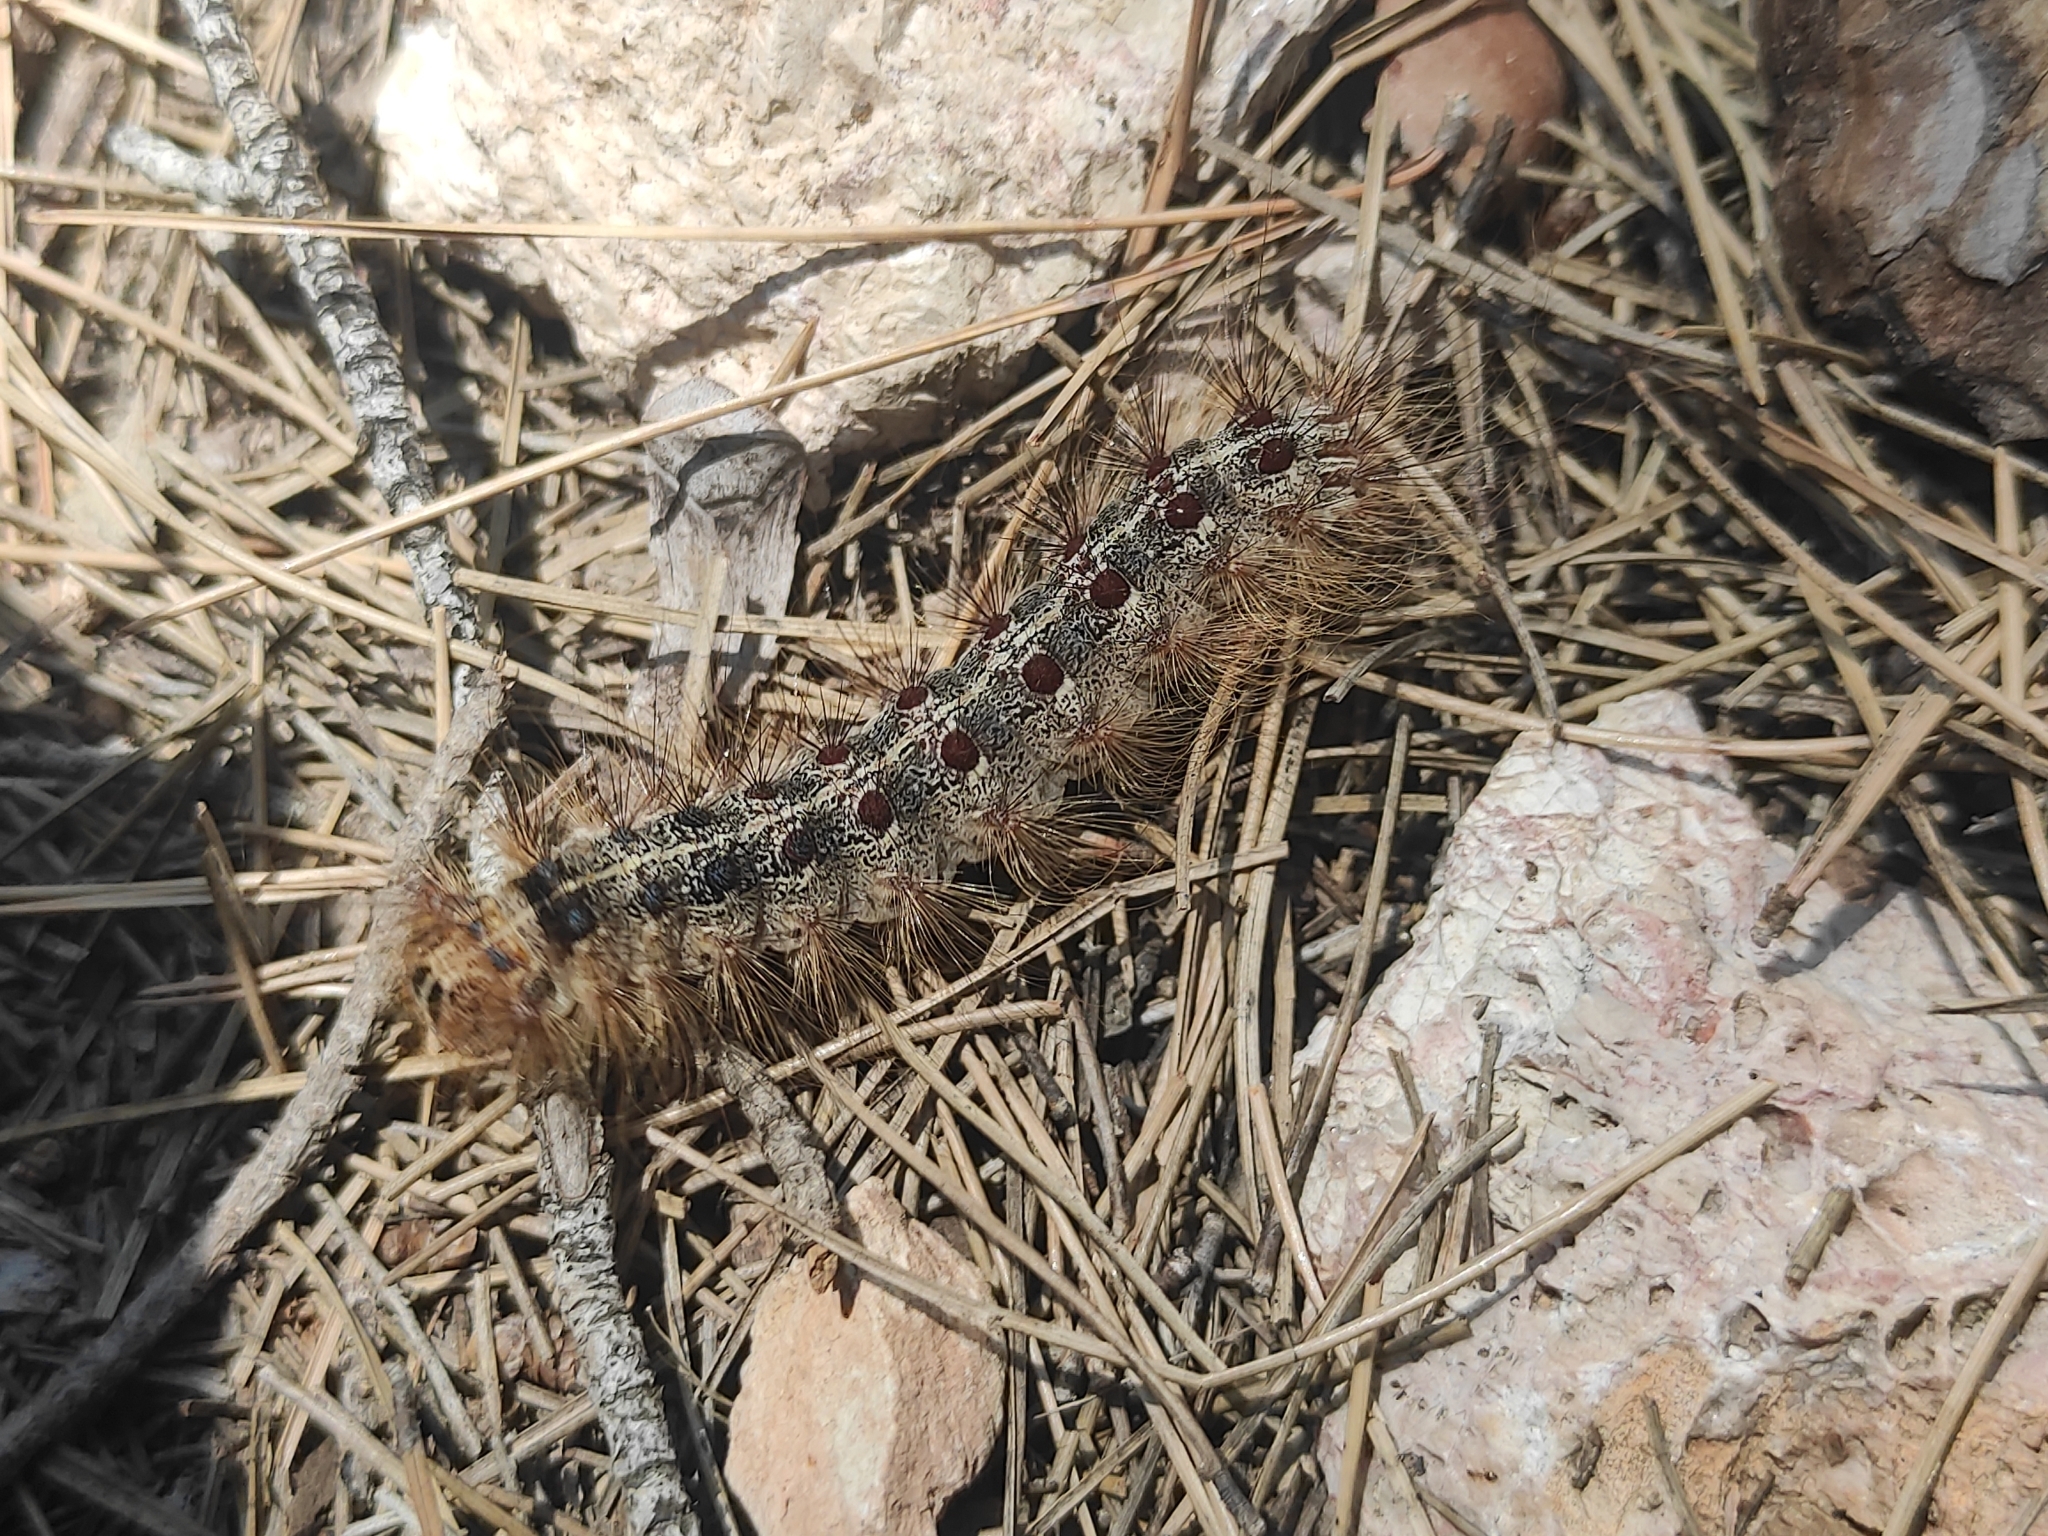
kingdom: Animalia
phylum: Arthropoda
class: Insecta
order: Lepidoptera
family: Erebidae
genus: Lymantria
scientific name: Lymantria dispar
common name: Gypsy moth
